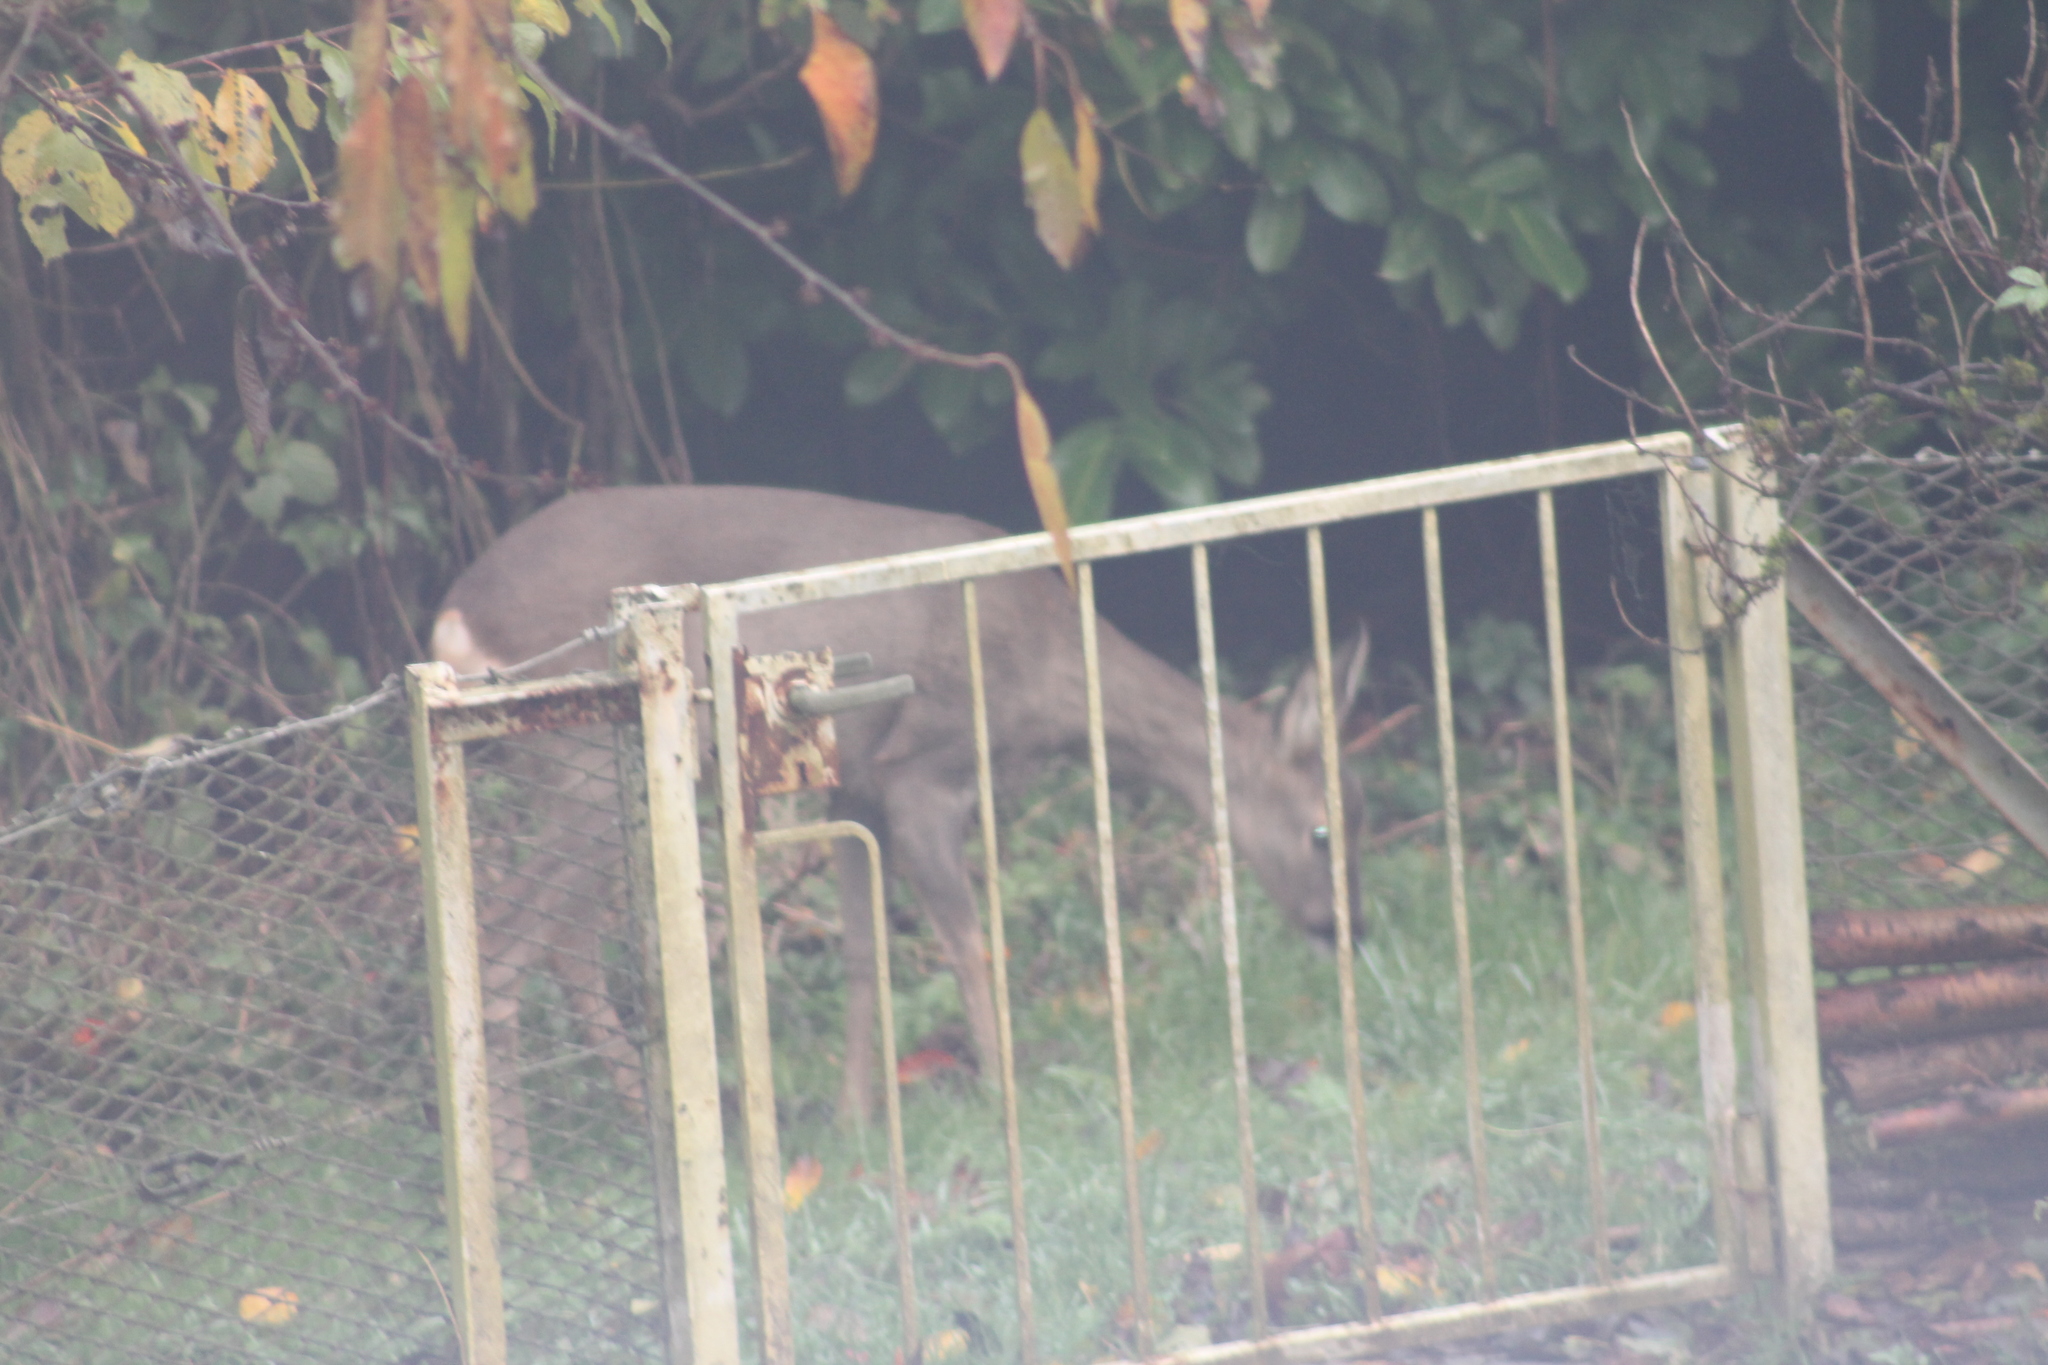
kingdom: Animalia
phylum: Chordata
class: Mammalia
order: Artiodactyla
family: Cervidae
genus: Capreolus
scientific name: Capreolus capreolus
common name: Western roe deer
